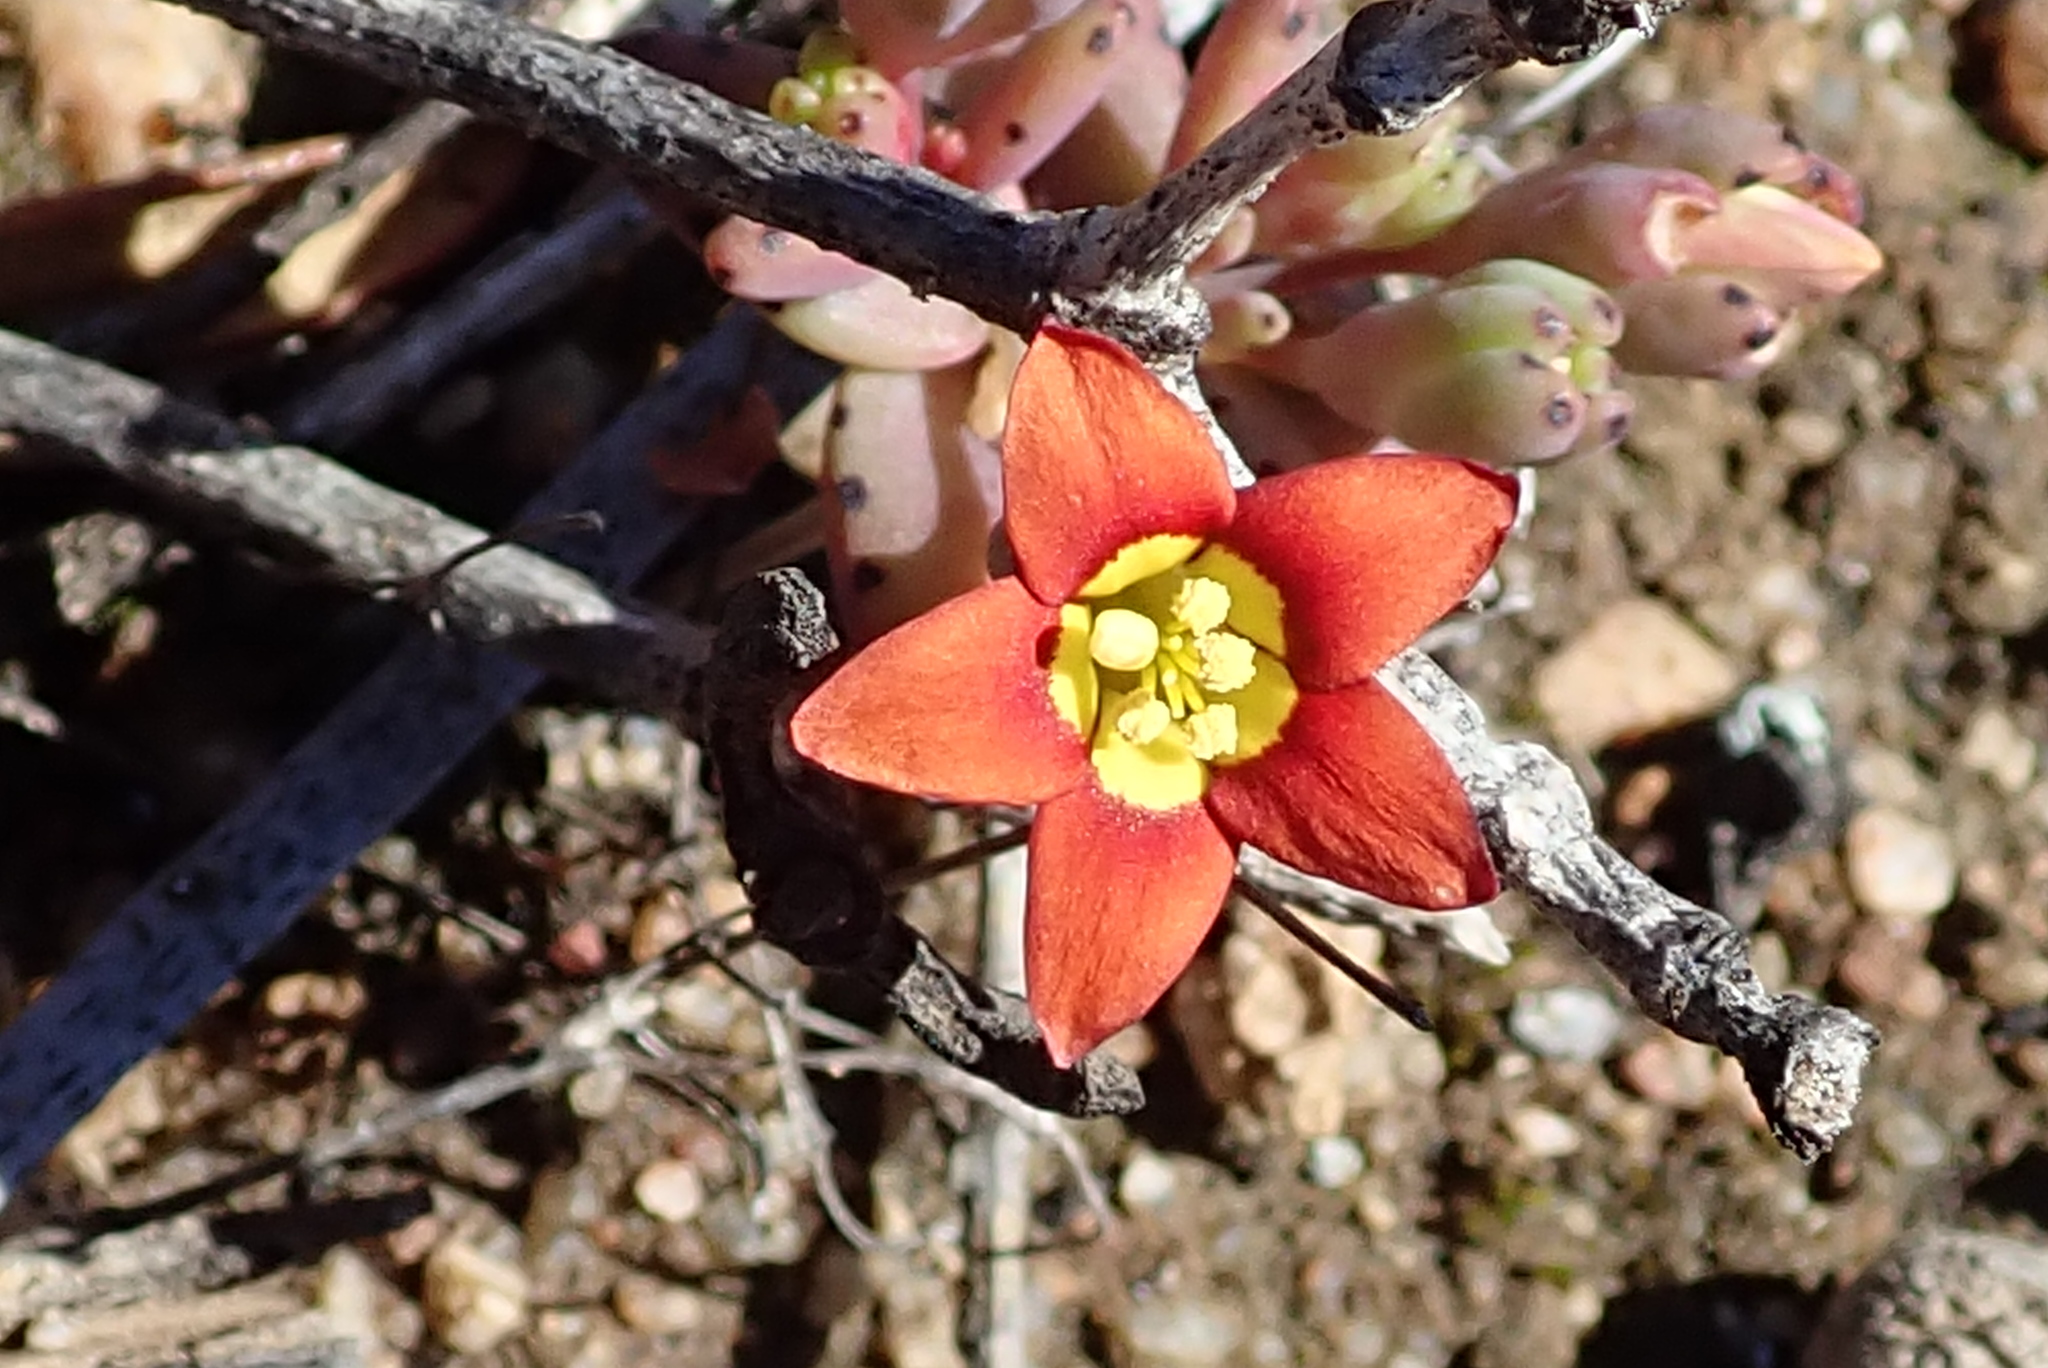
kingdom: Plantae
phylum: Tracheophyta
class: Magnoliopsida
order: Saxifragales
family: Crassulaceae
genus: Crassula
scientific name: Crassula dichotoma
